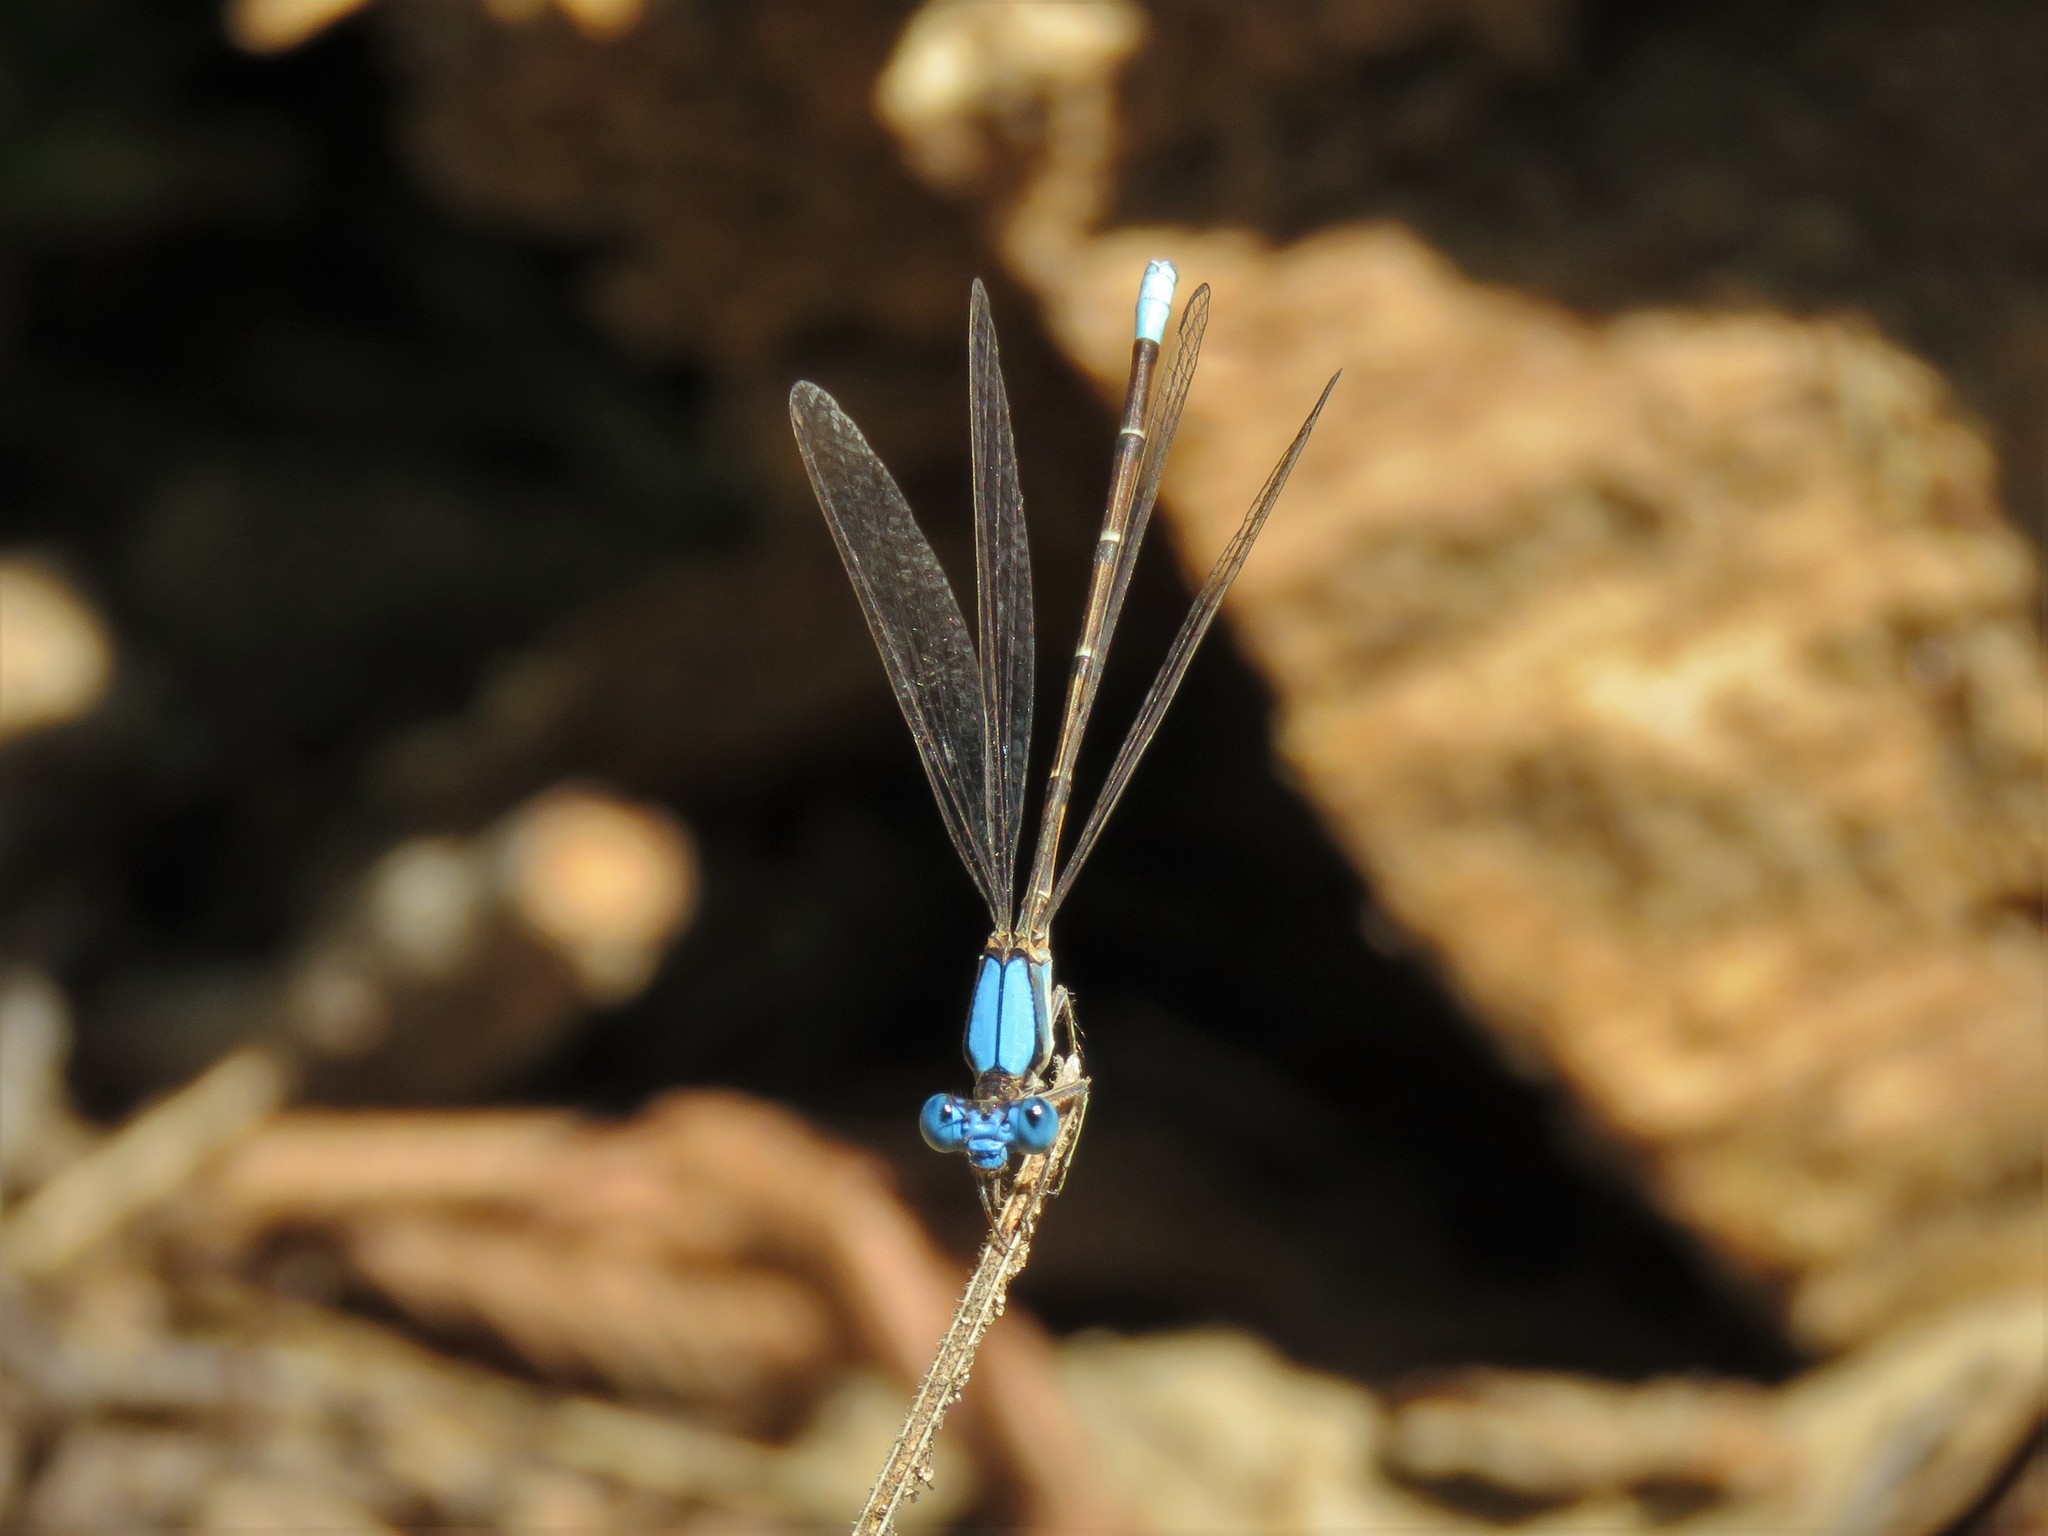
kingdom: Animalia
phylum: Arthropoda
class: Insecta
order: Odonata
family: Coenagrionidae
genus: Argia
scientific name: Argia apicalis
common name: Blue-fronted dancer
